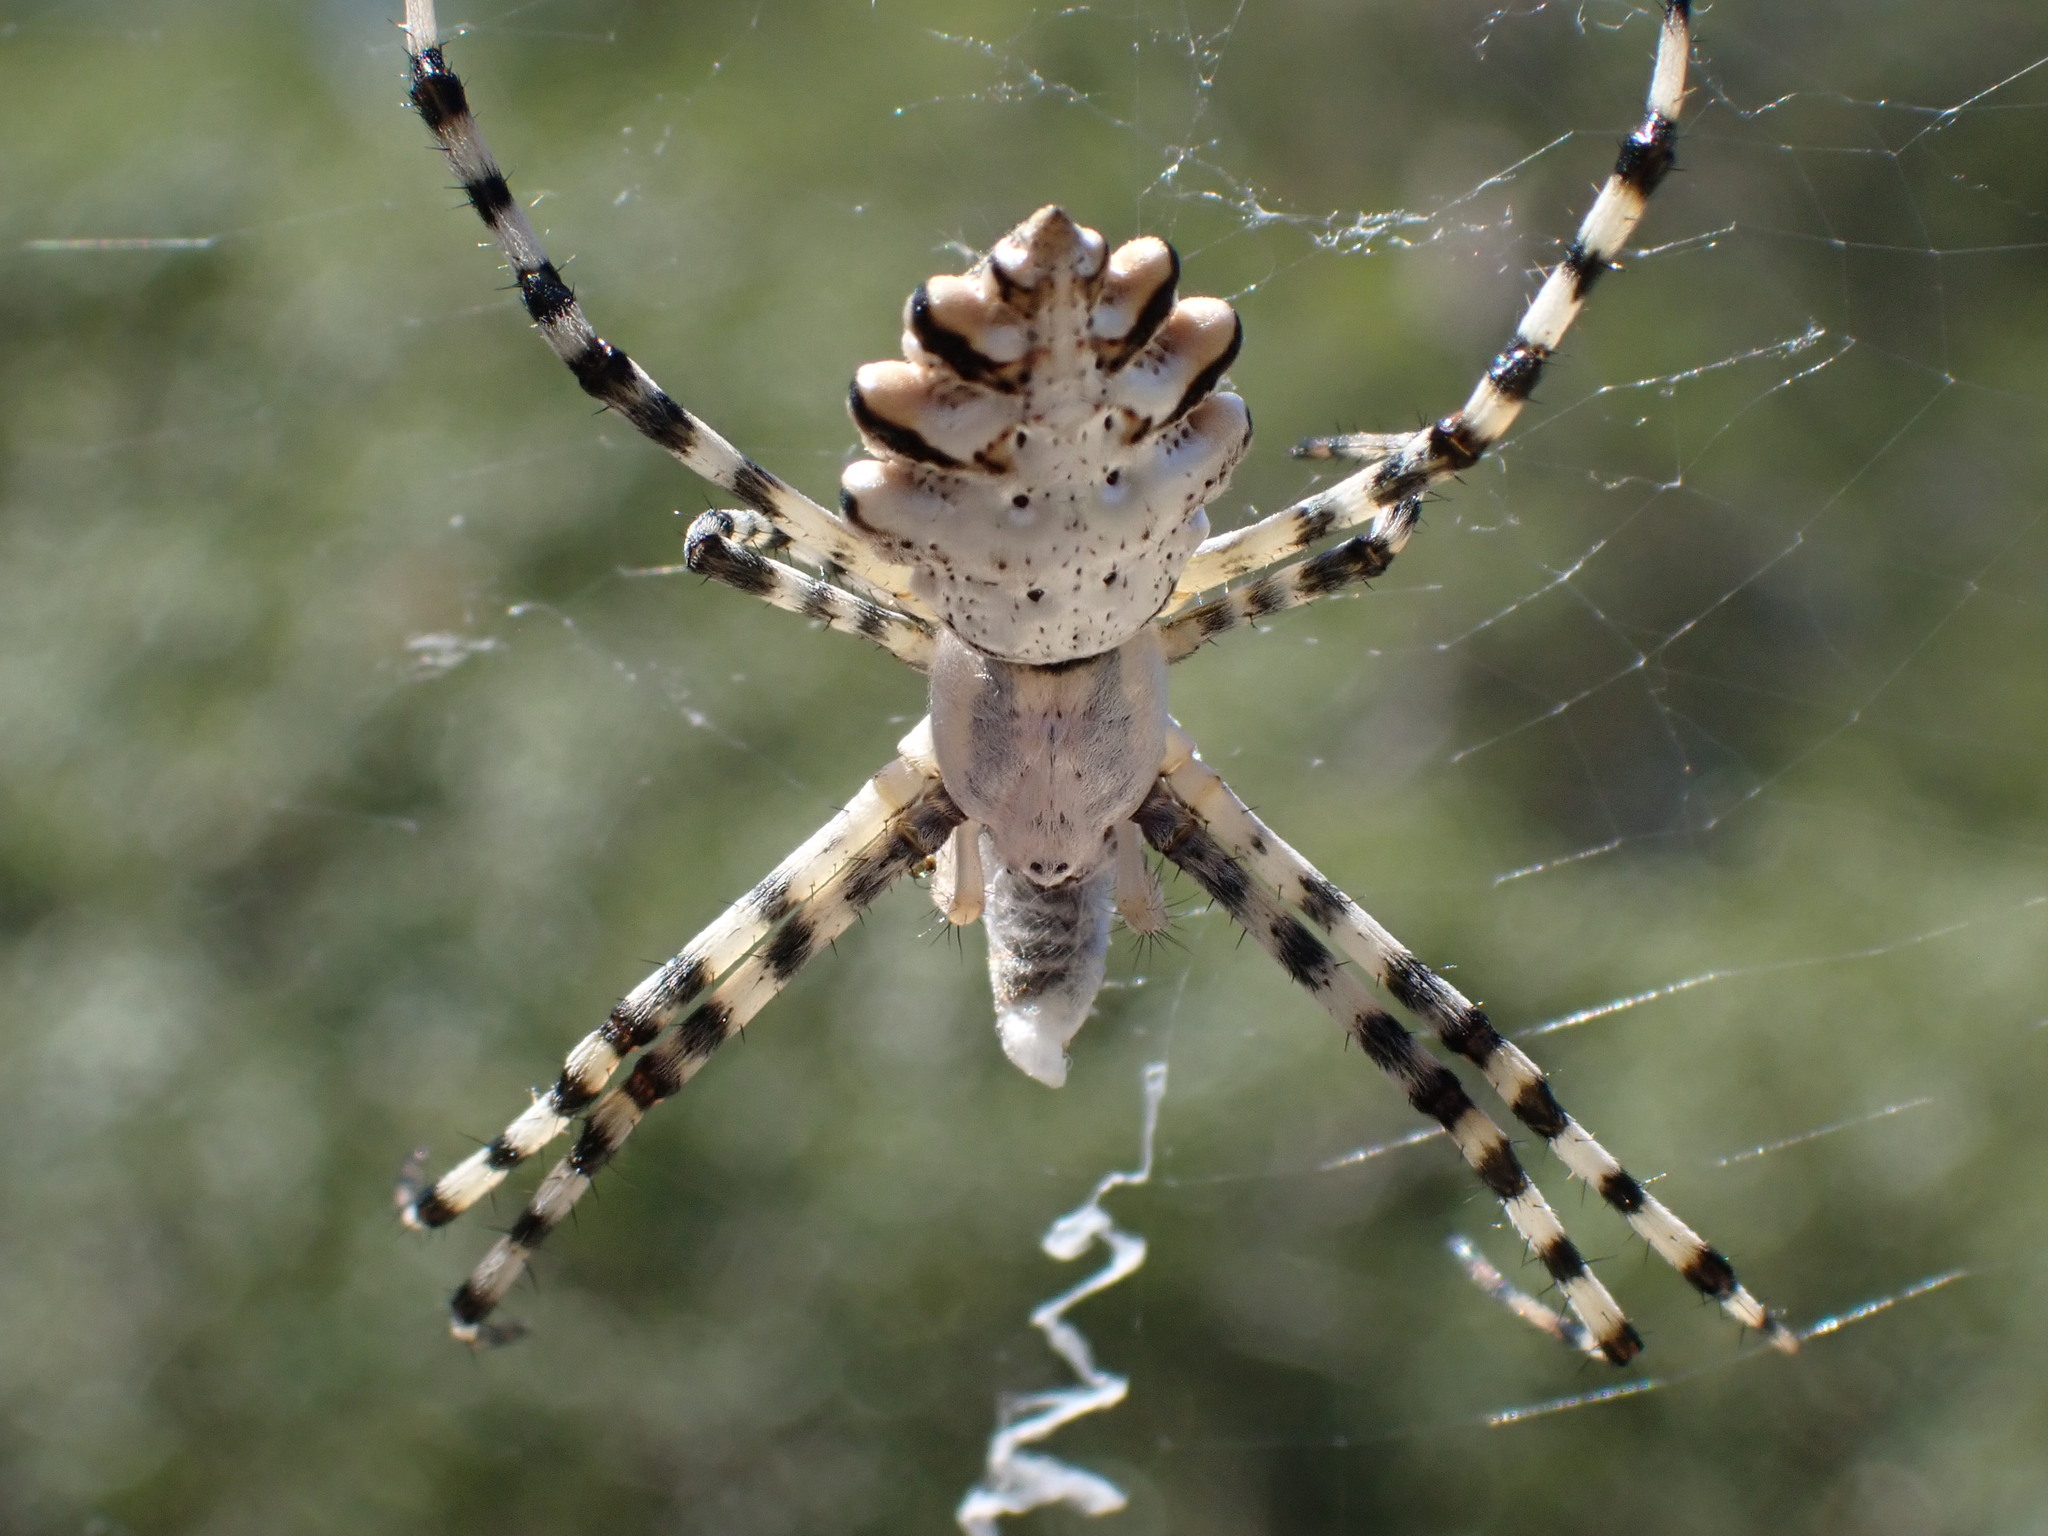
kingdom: Animalia
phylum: Arthropoda
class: Arachnida
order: Araneae
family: Araneidae
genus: Argiope
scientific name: Argiope lobata
